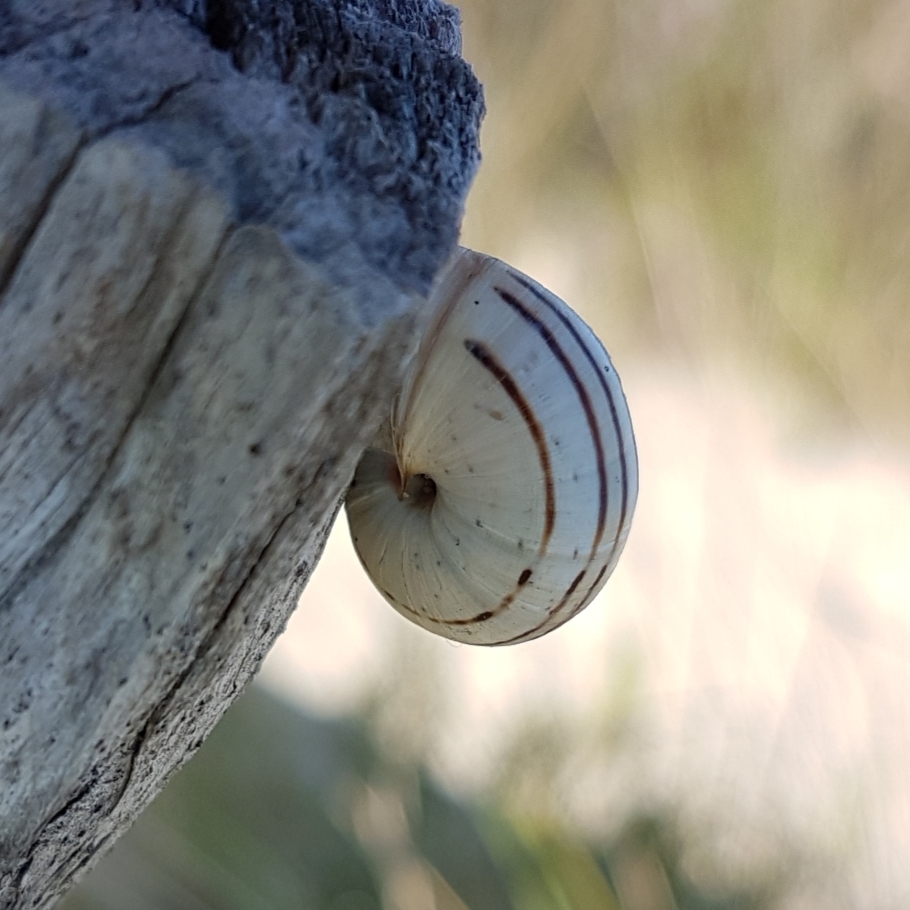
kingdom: Animalia
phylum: Mollusca
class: Gastropoda
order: Stylommatophora
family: Helicidae
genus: Theba
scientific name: Theba pisana
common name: White snail
